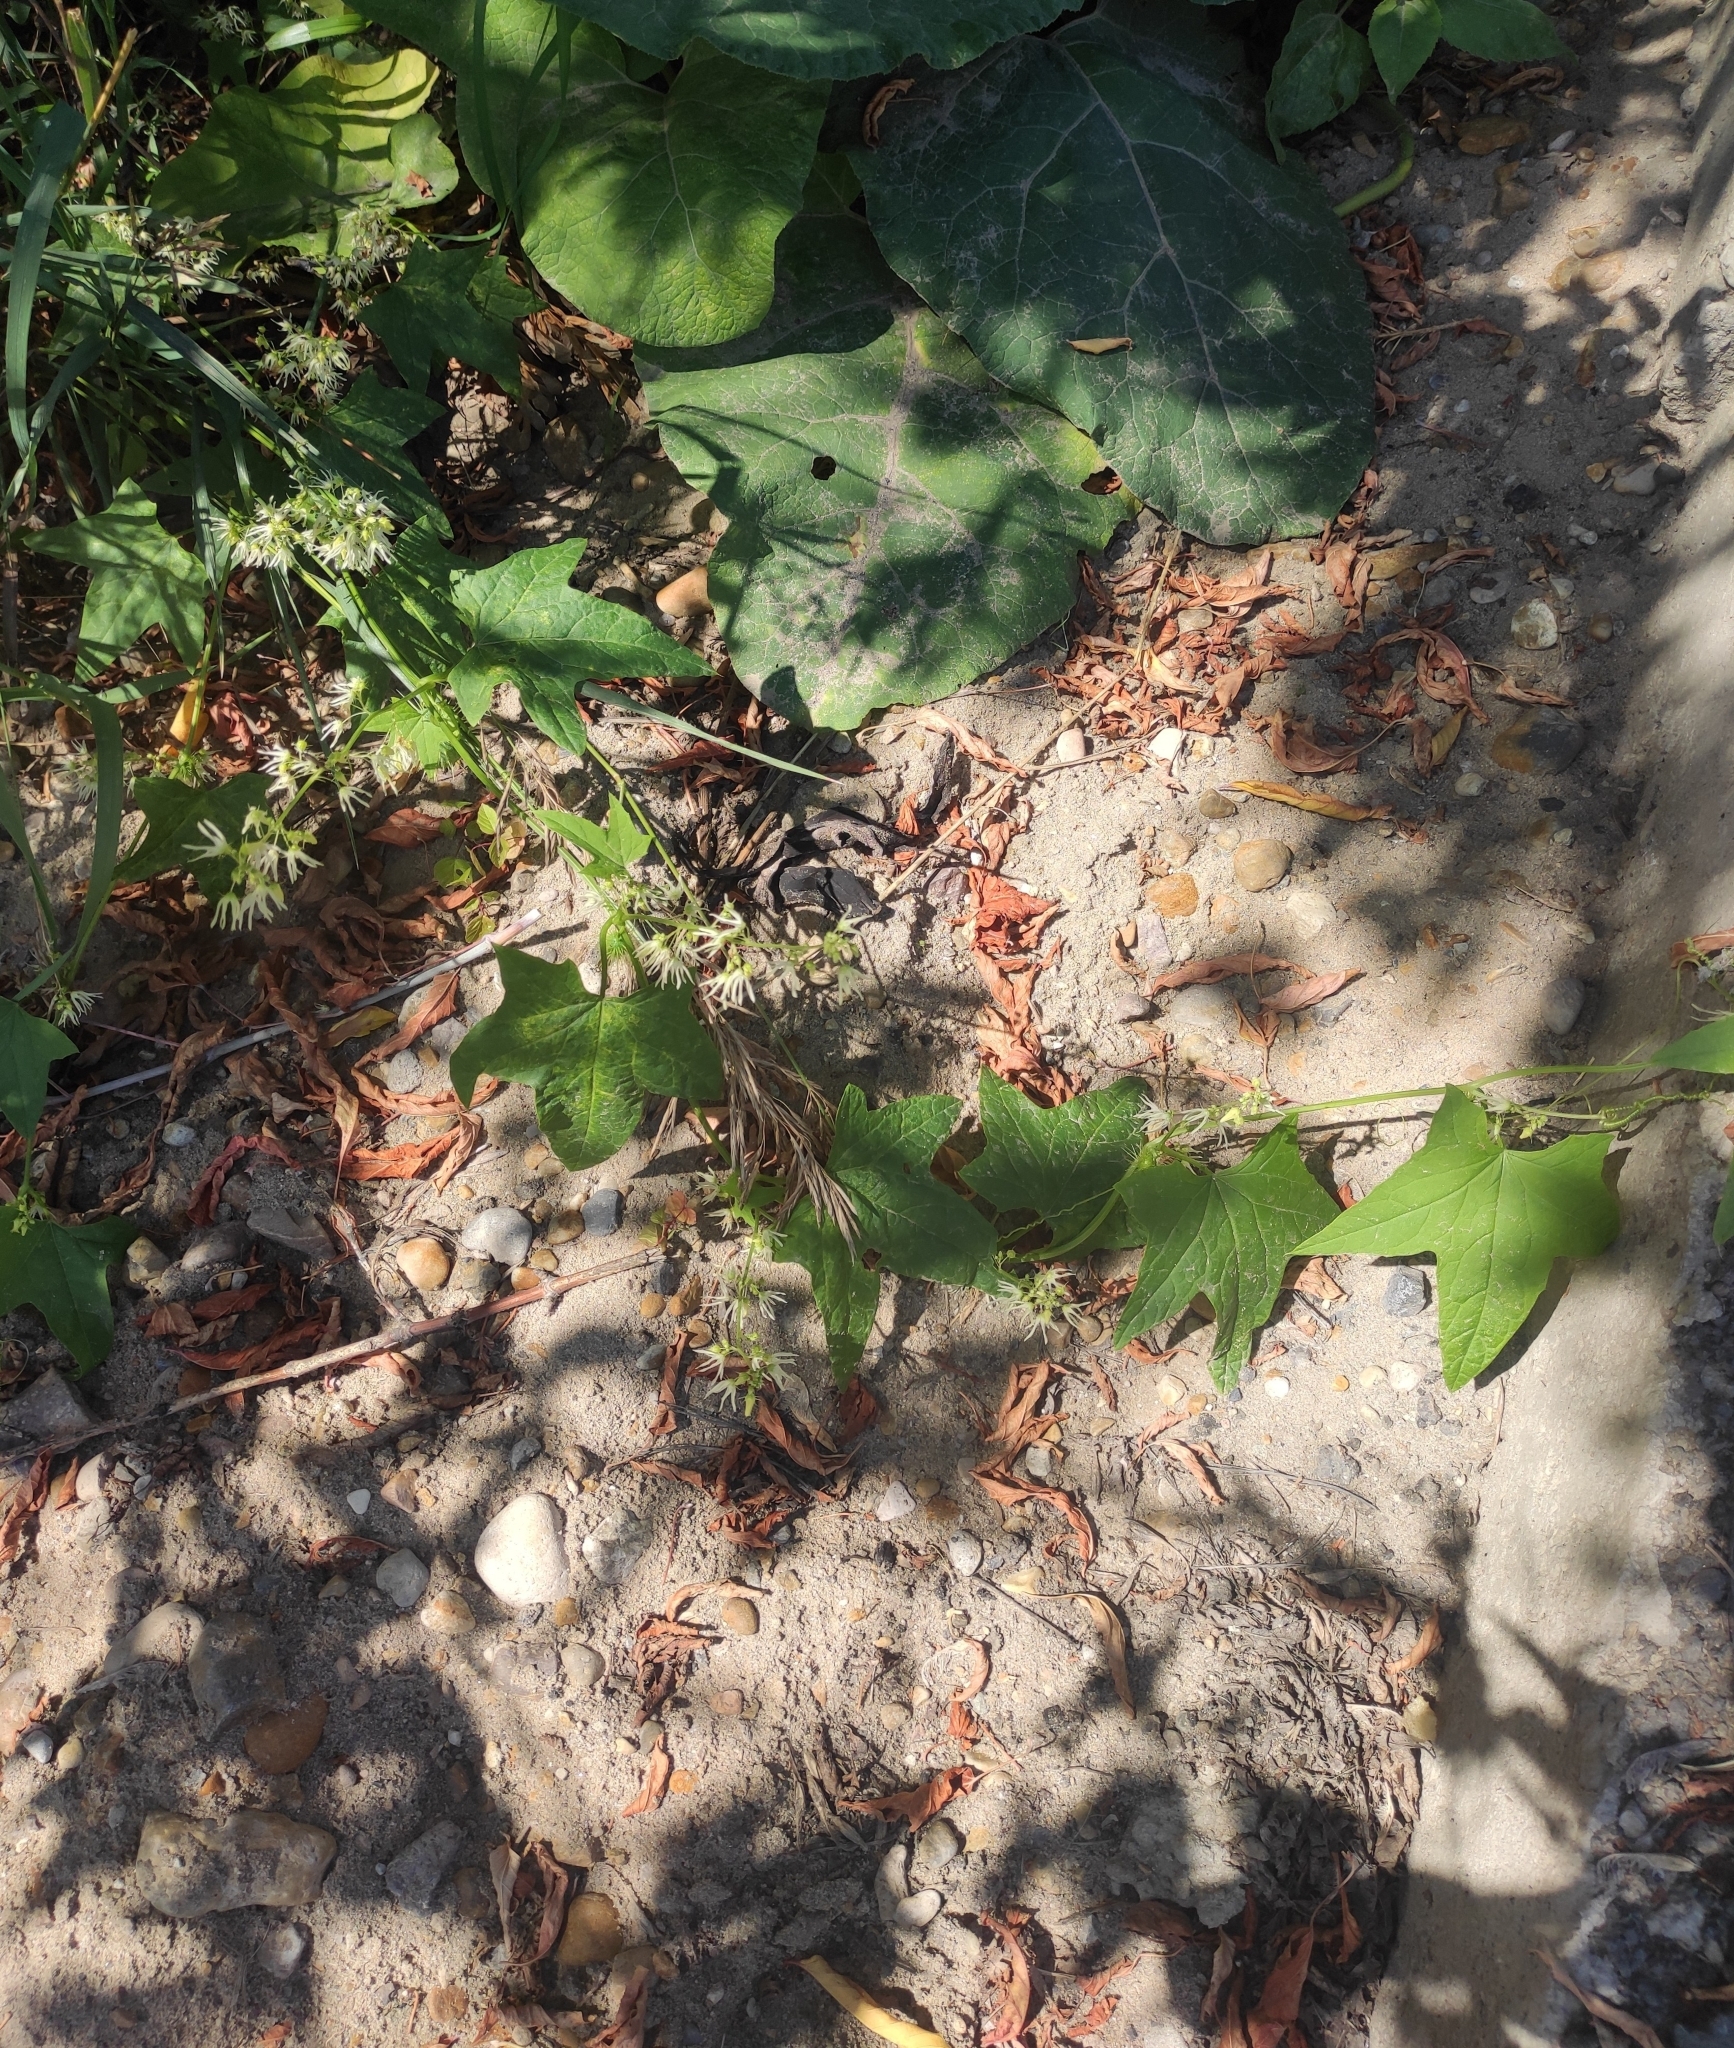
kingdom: Plantae
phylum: Tracheophyta
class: Magnoliopsida
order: Cucurbitales
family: Cucurbitaceae
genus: Echinocystis
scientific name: Echinocystis lobata
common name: Wild cucumber
